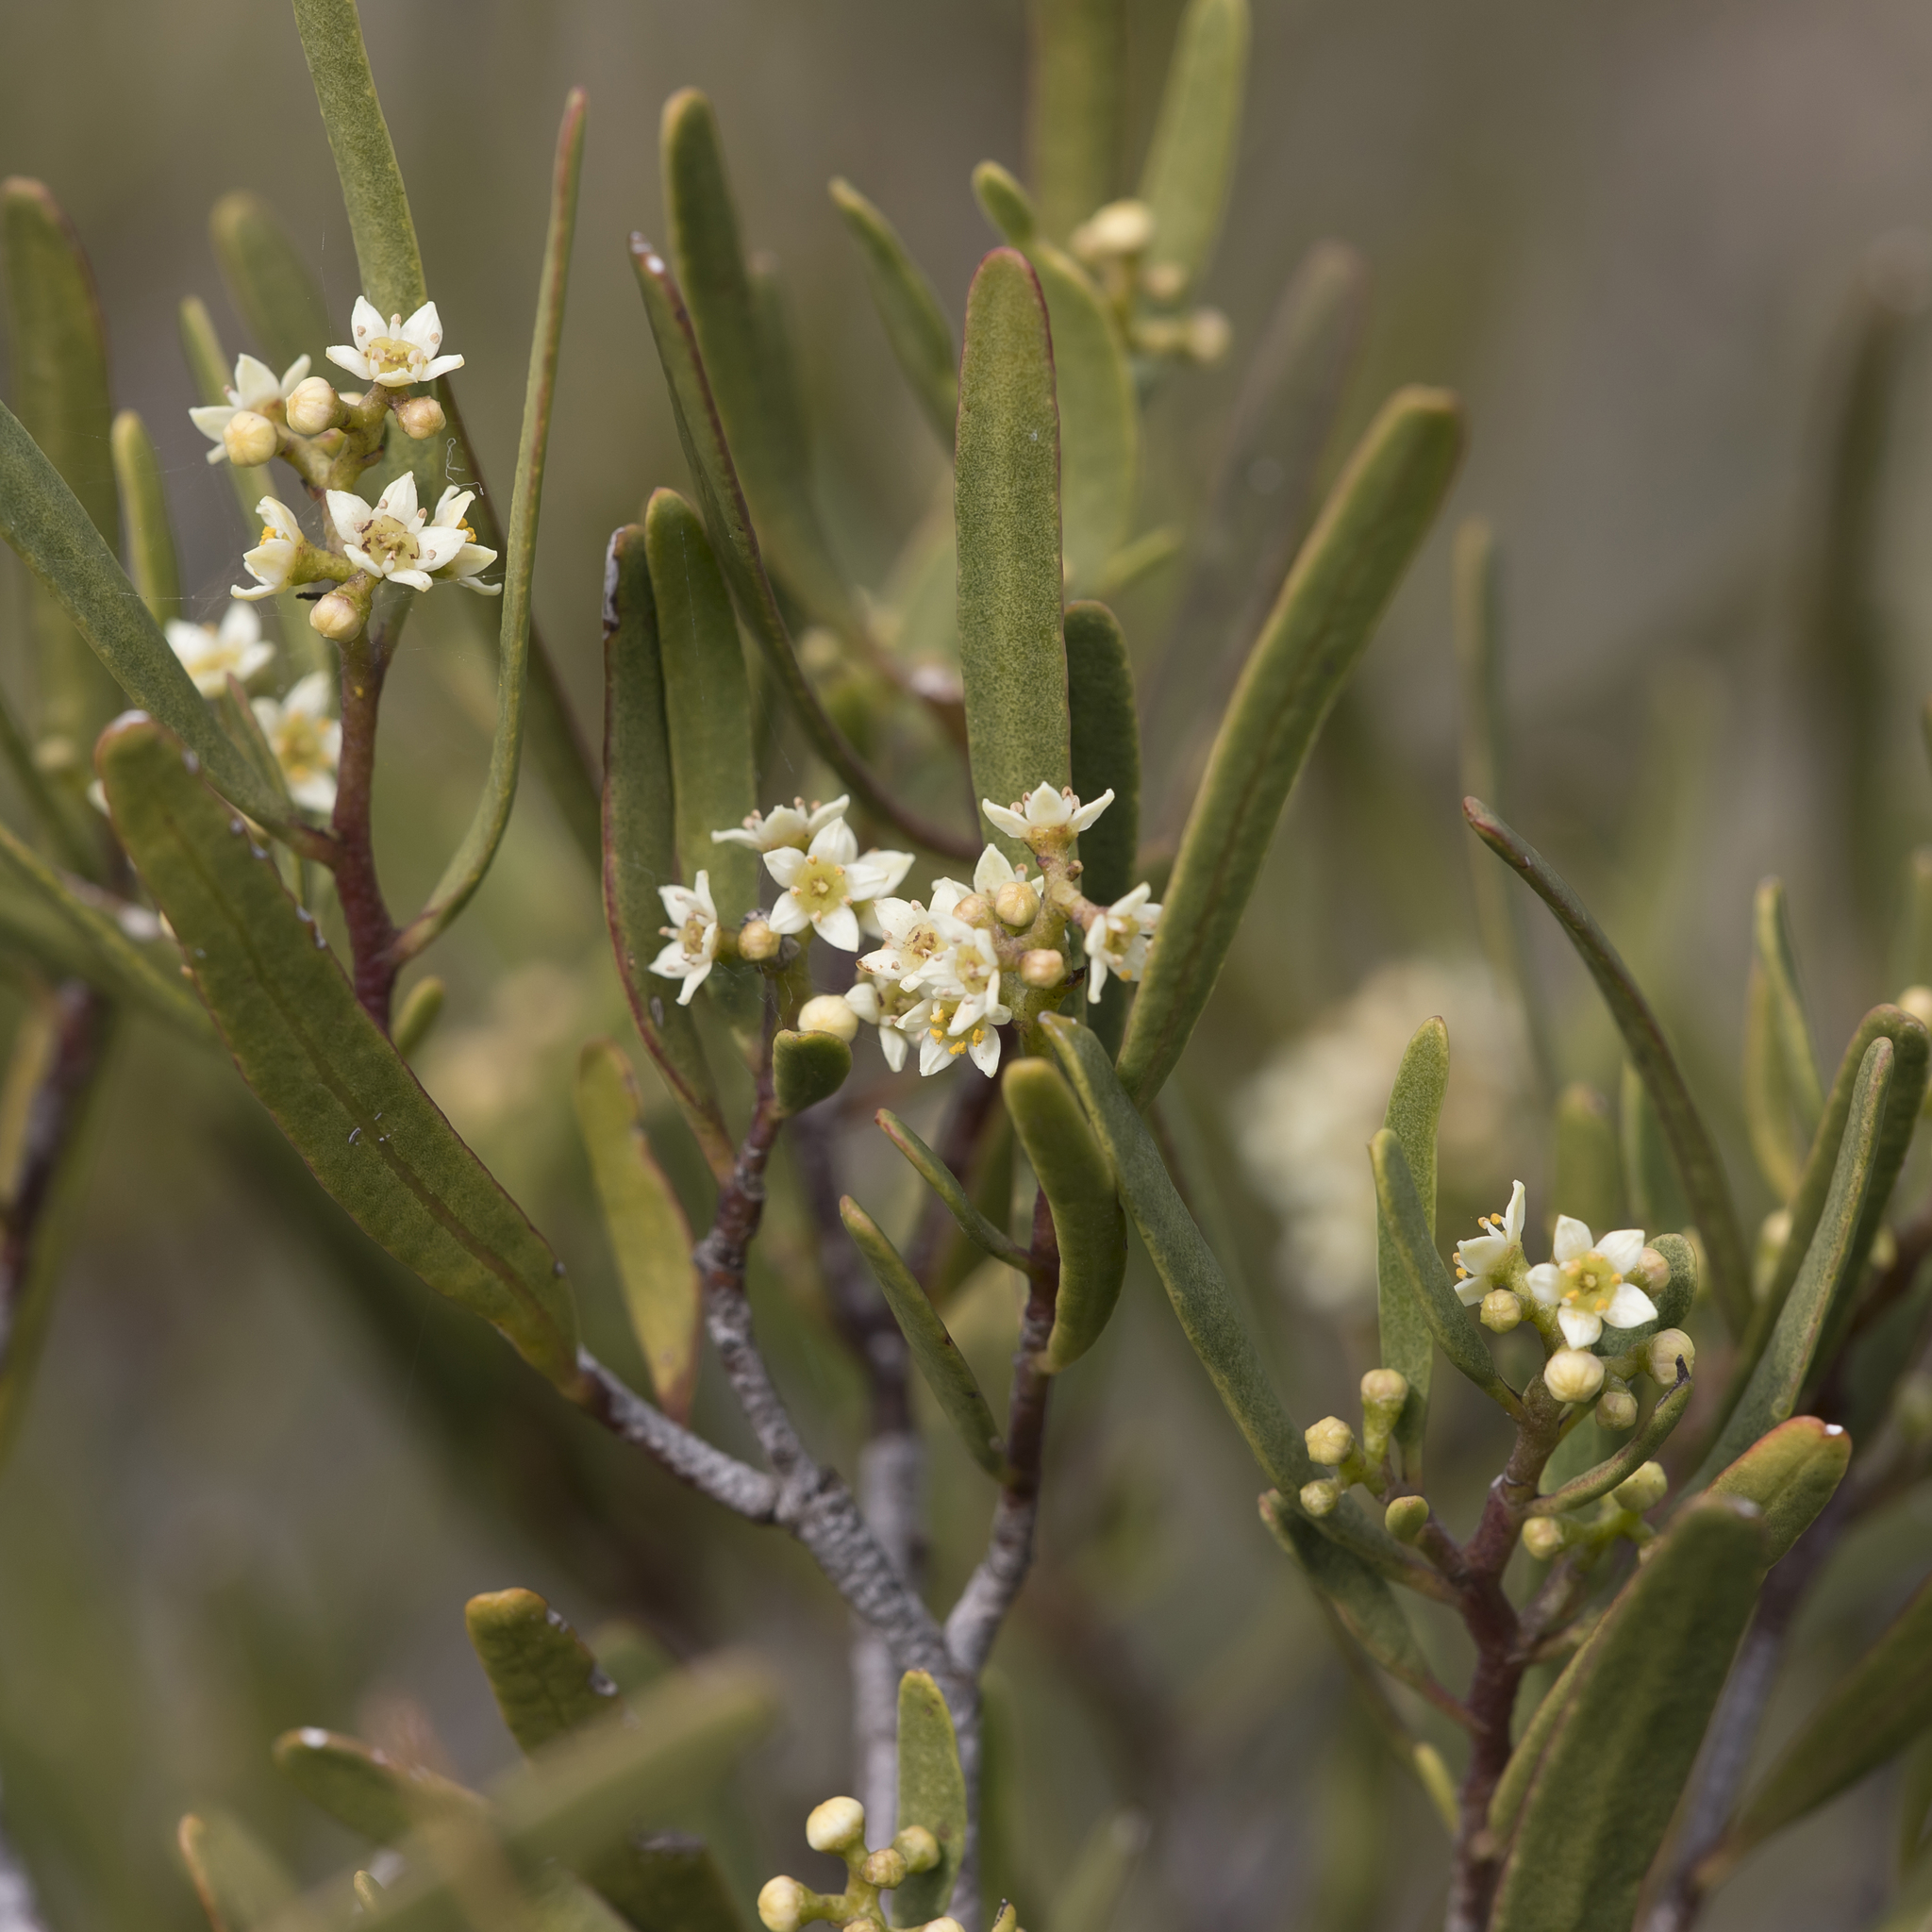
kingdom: Plantae
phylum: Tracheophyta
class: Magnoliopsida
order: Sapindales
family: Rutaceae
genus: Geijera
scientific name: Geijera linearifolia
